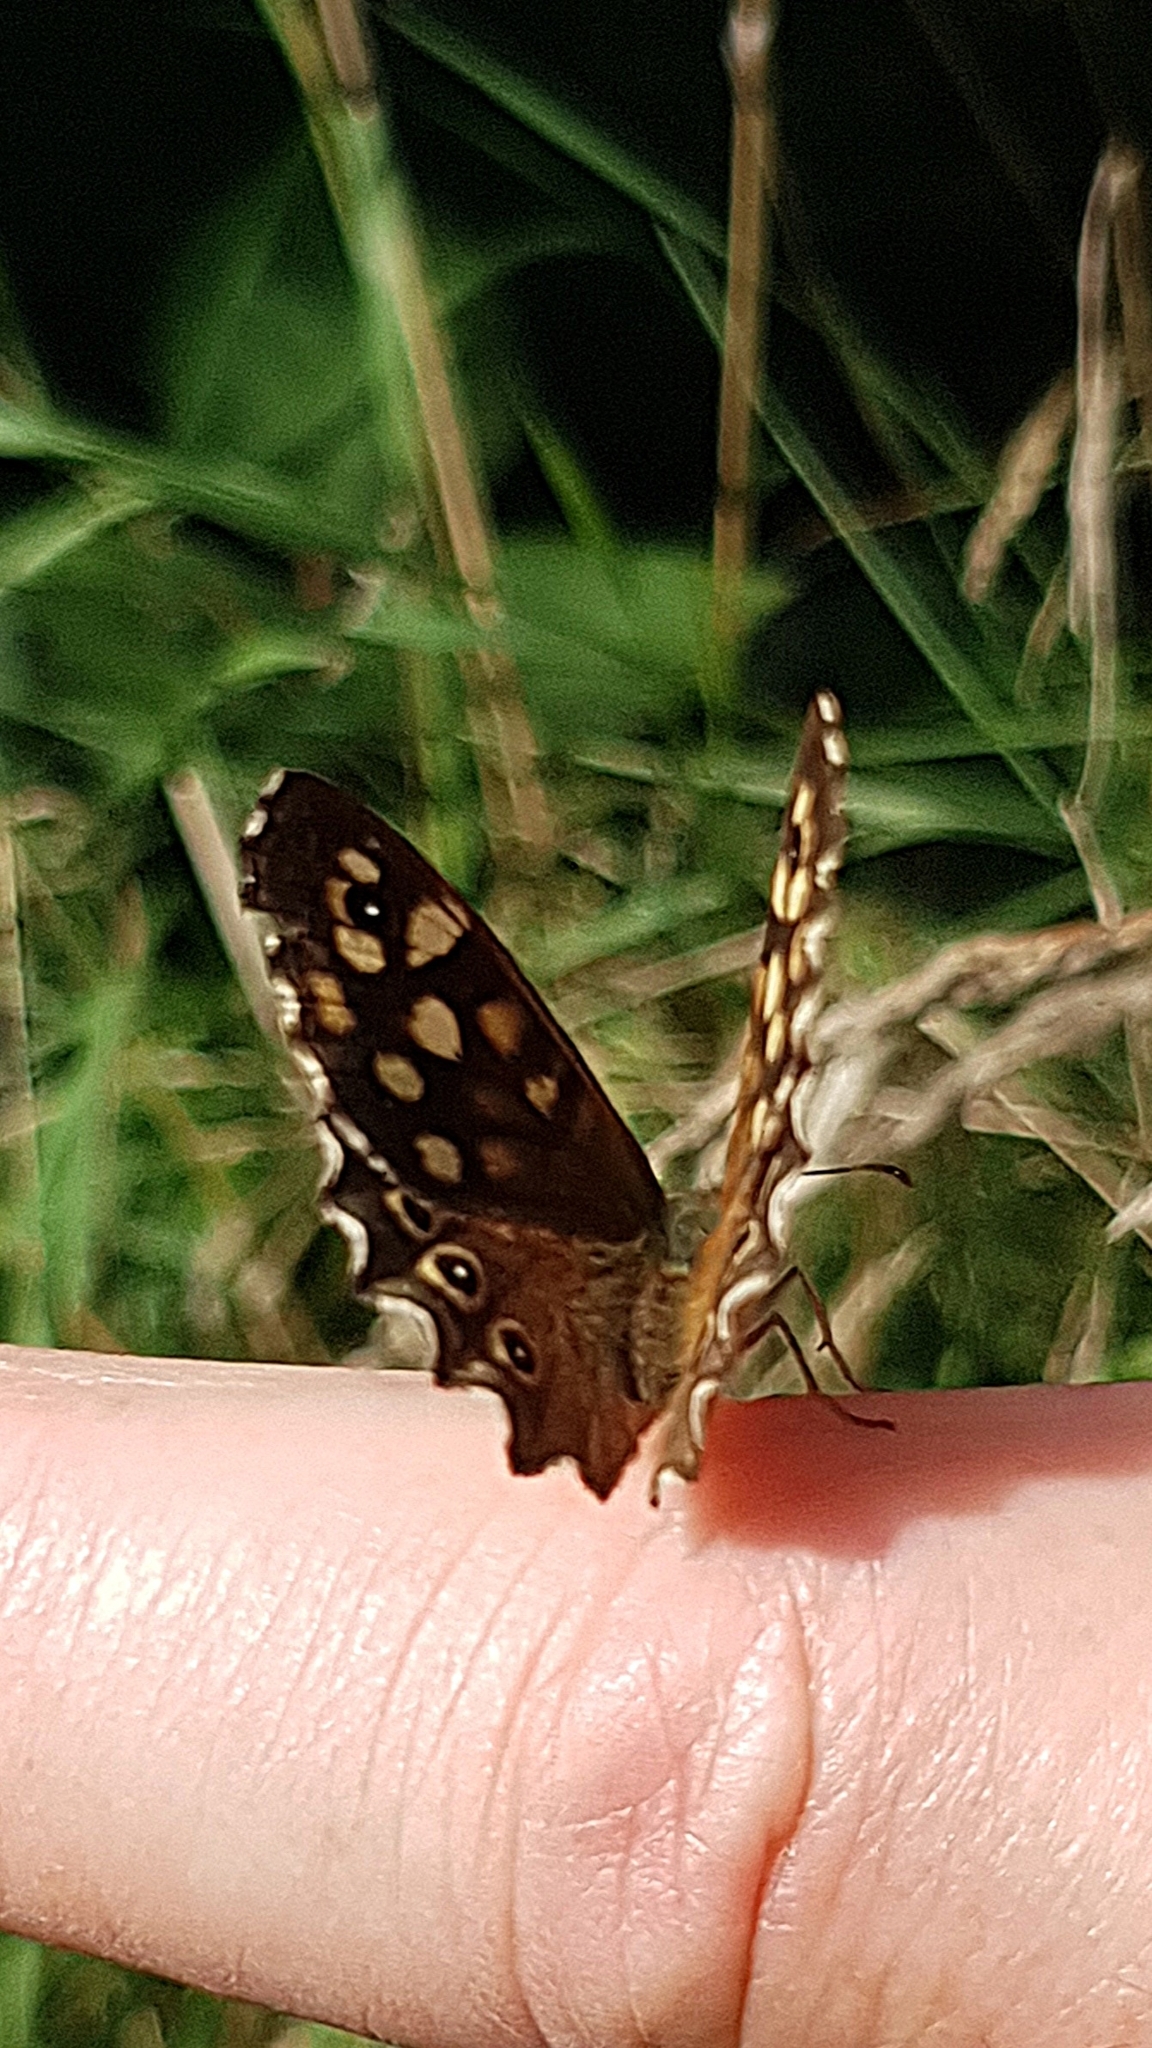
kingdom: Animalia
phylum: Arthropoda
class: Insecta
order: Lepidoptera
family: Nymphalidae
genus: Pararge
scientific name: Pararge aegeria
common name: Speckled wood
